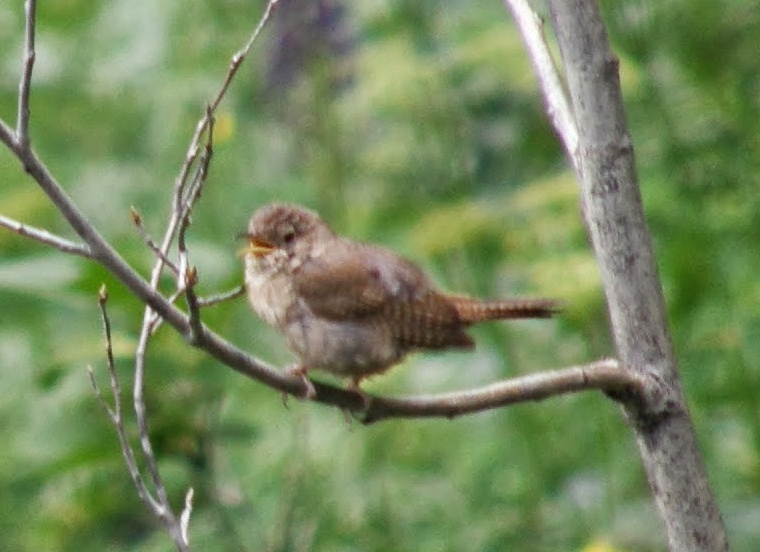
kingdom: Animalia
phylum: Chordata
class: Aves
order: Passeriformes
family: Troglodytidae
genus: Troglodytes
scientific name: Troglodytes aedon
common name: House wren
